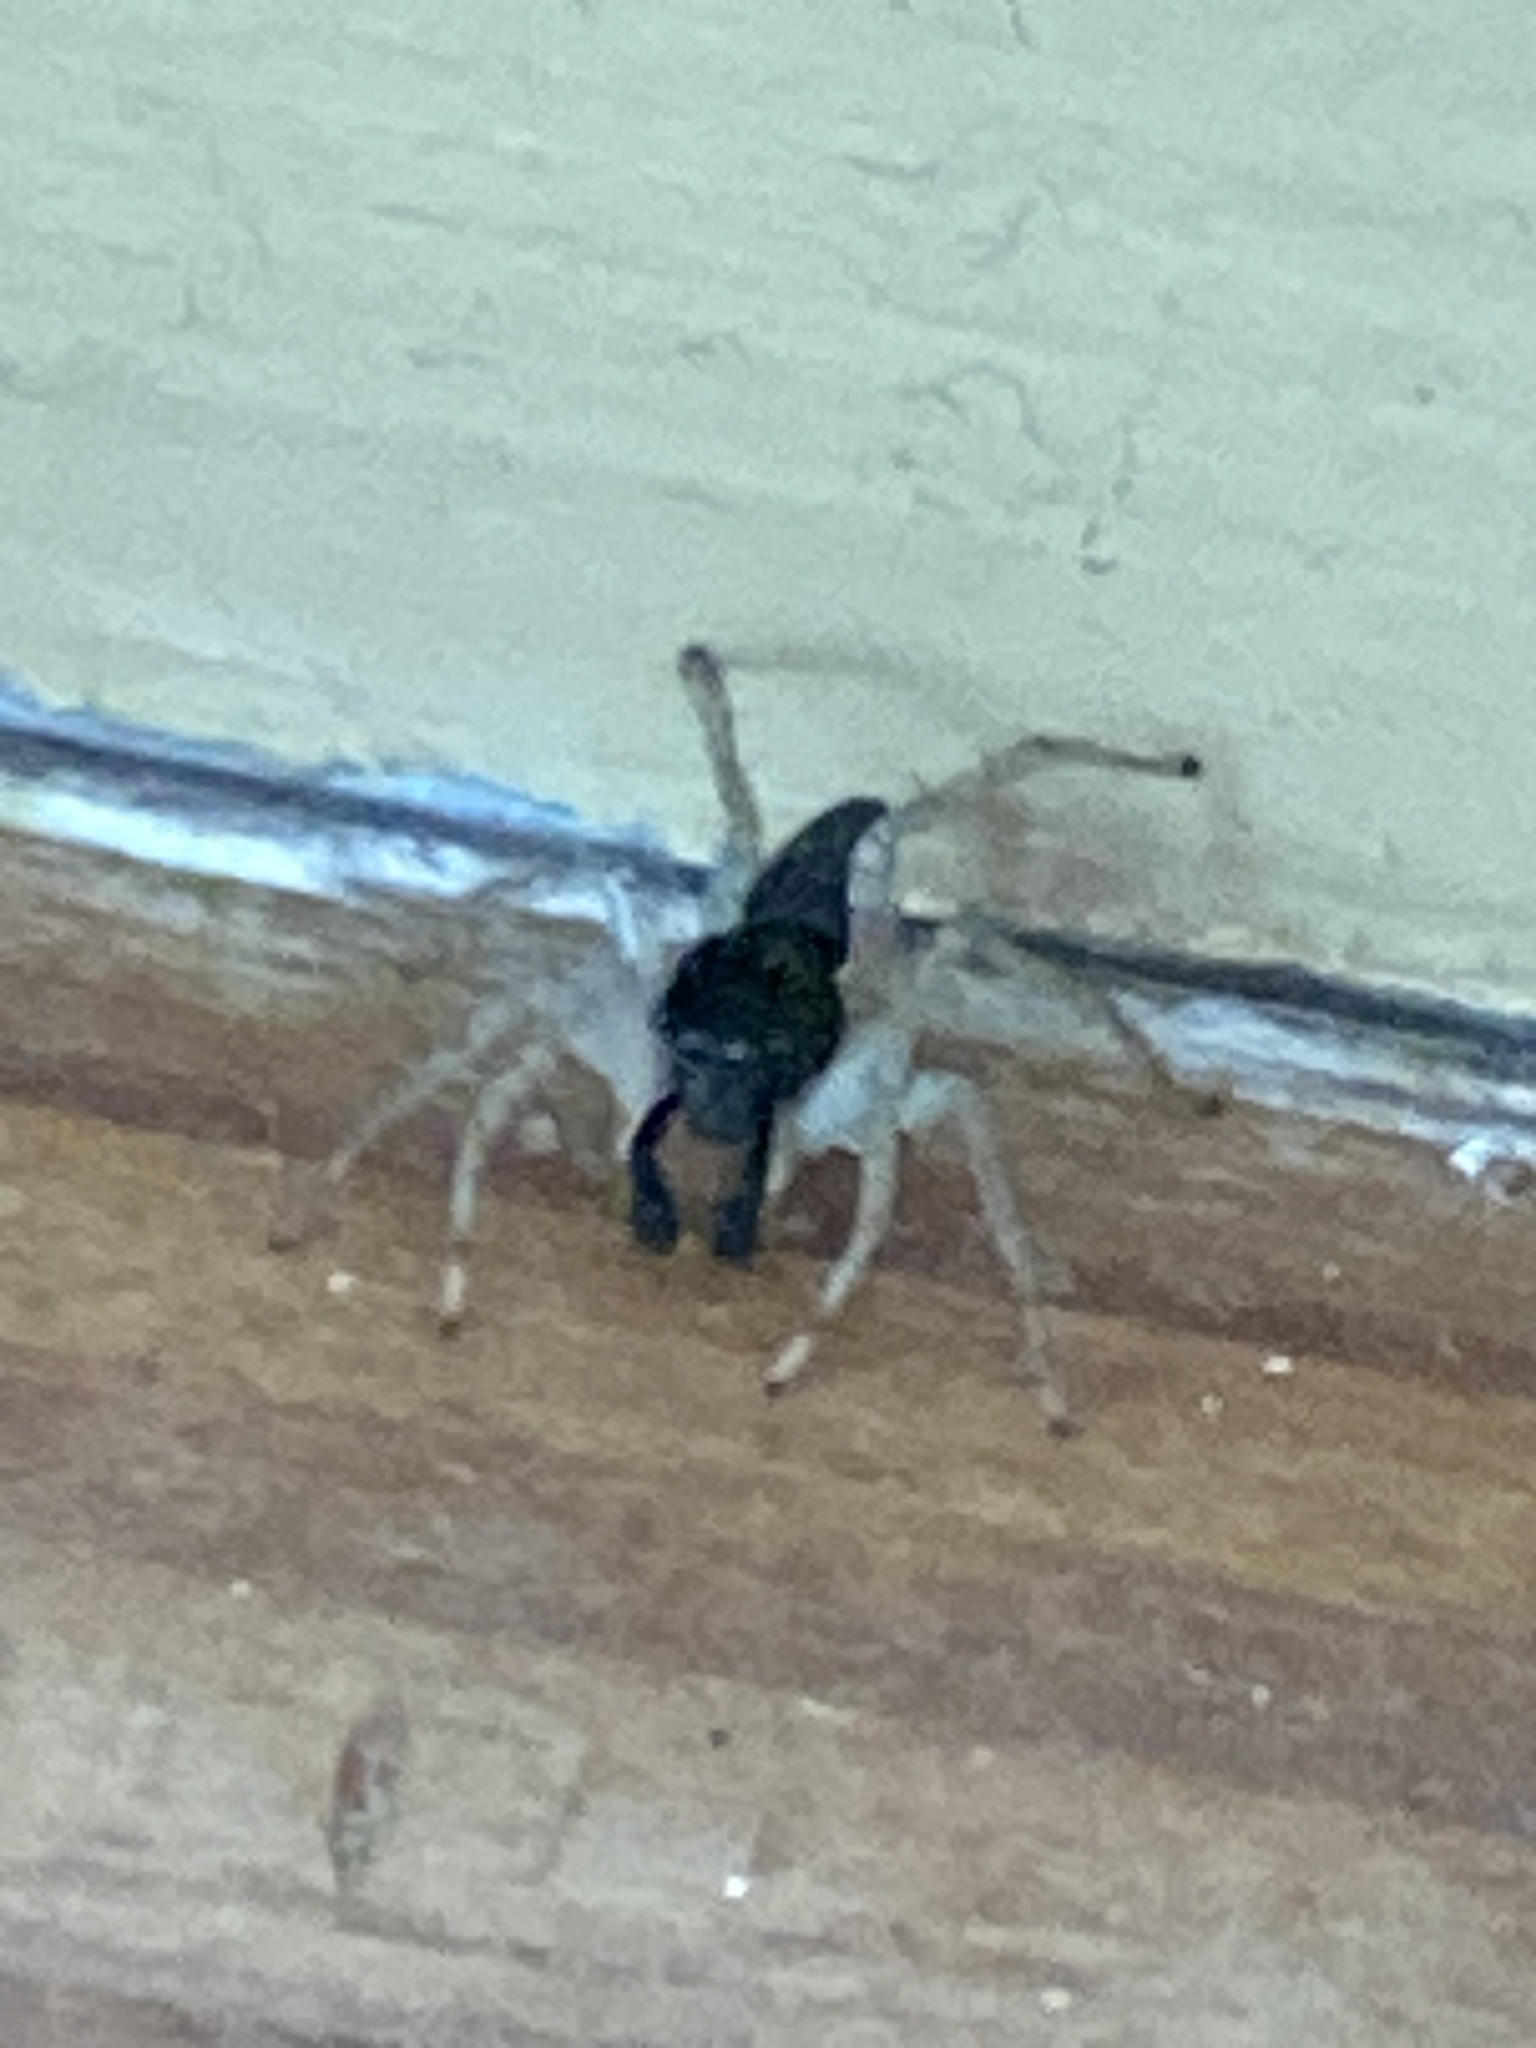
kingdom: Animalia
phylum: Arthropoda
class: Arachnida
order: Araneae
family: Salticidae
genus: Maevia
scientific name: Maevia inclemens
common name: Dimorphic jumper
